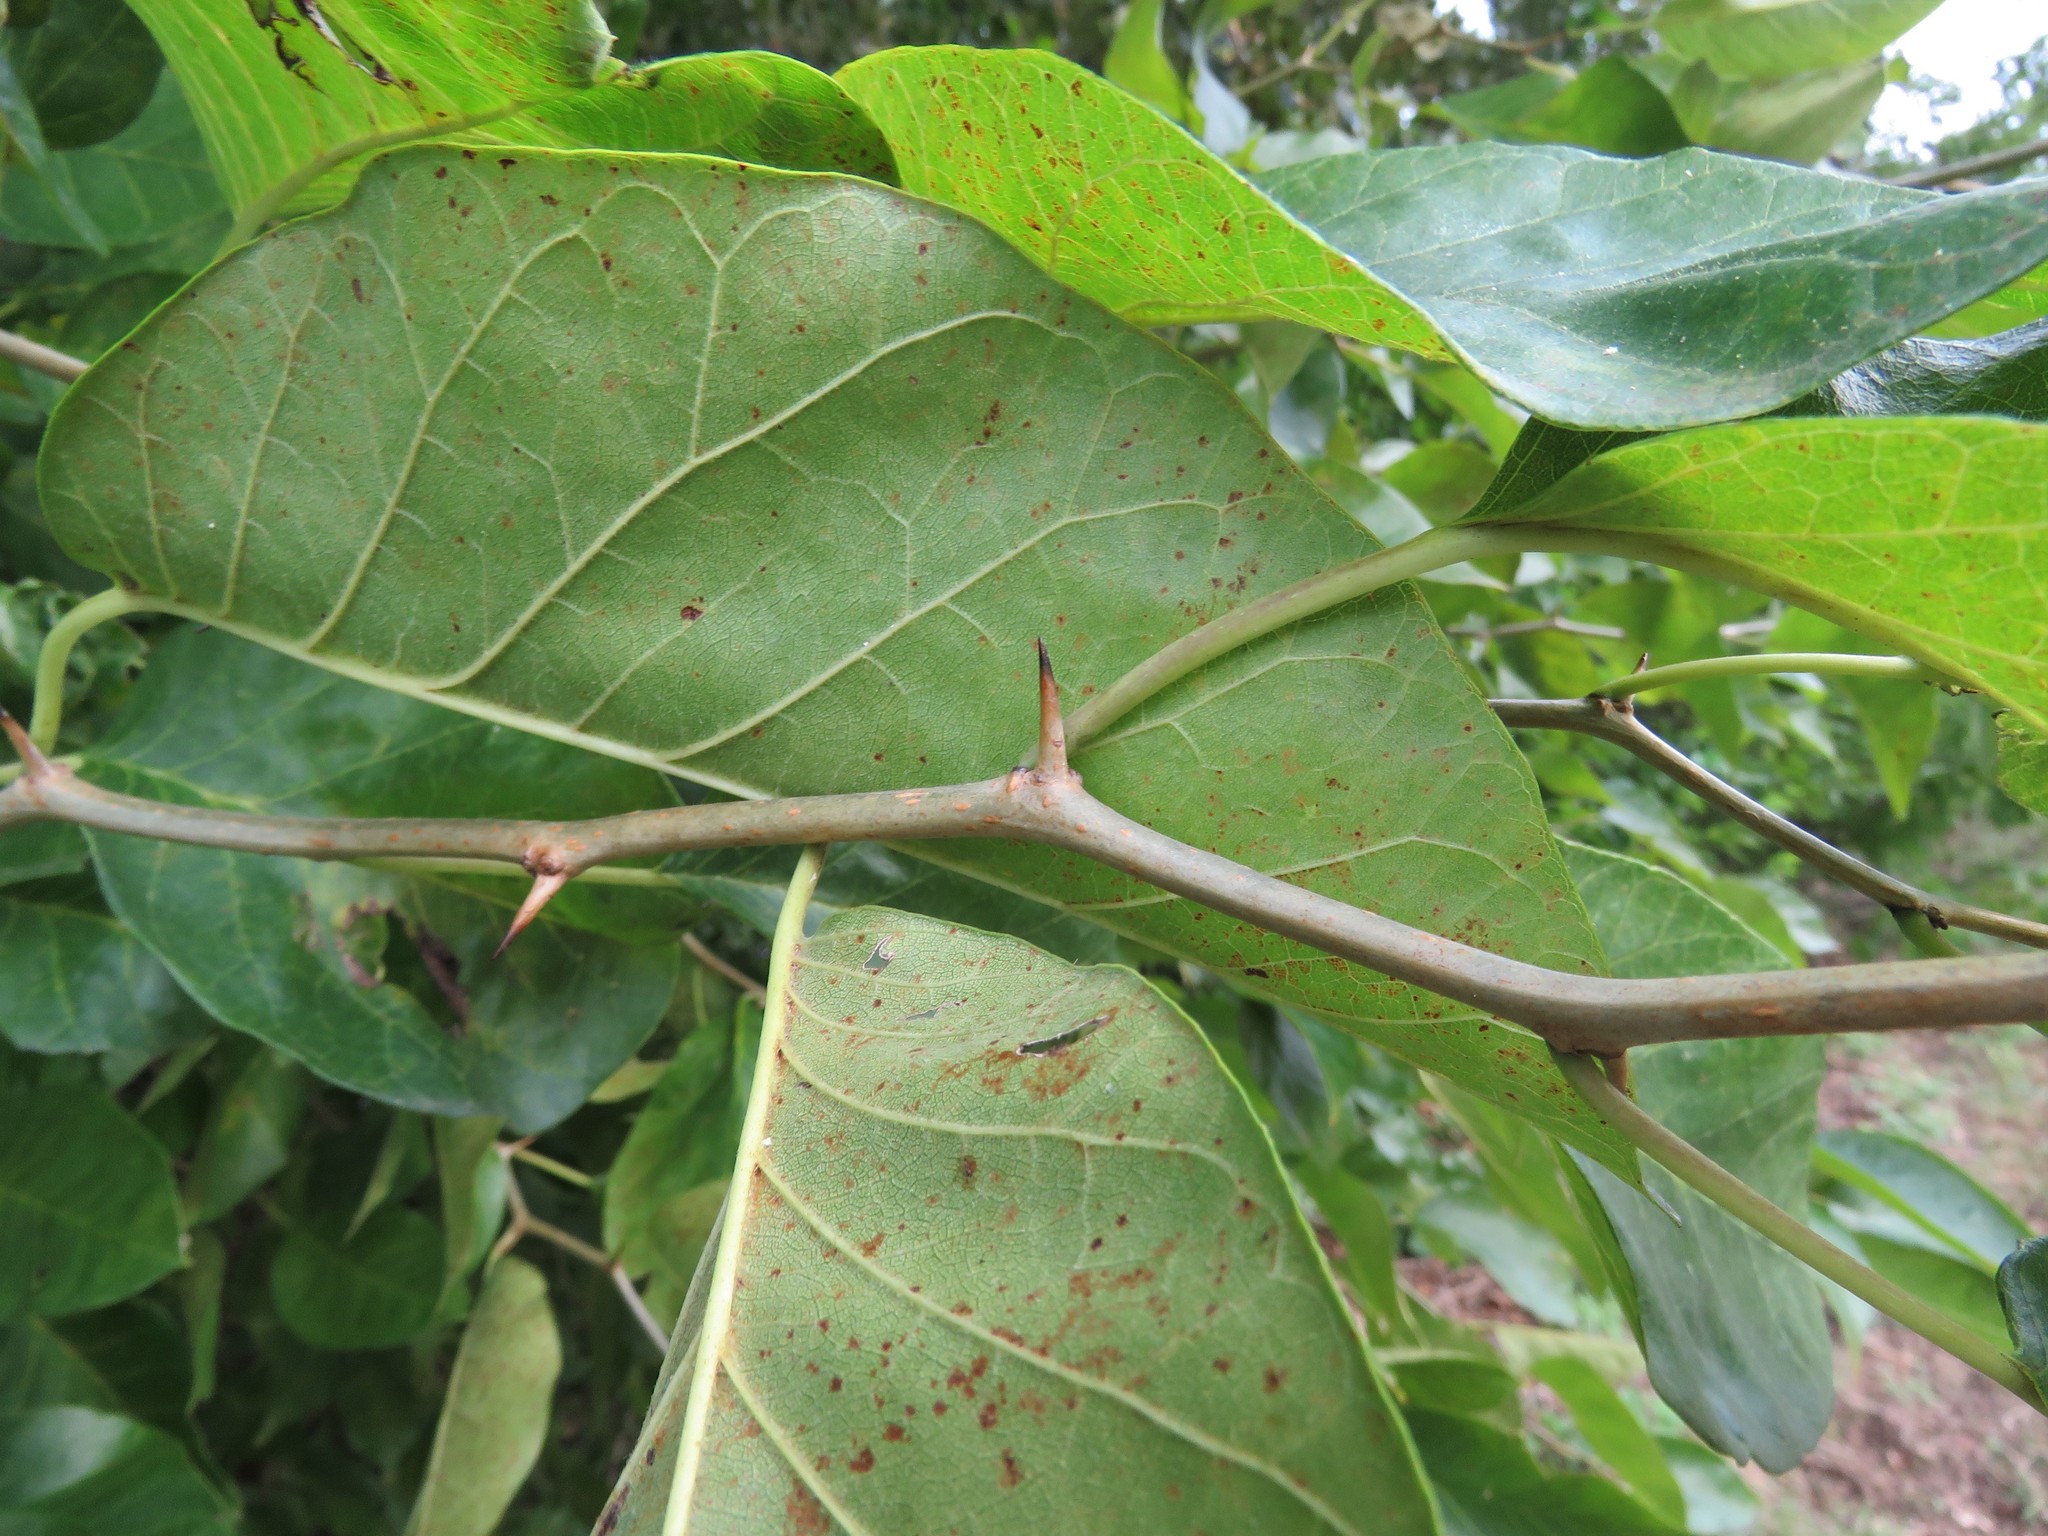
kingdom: Plantae
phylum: Tracheophyta
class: Magnoliopsida
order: Rosales
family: Moraceae
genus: Maclura
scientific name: Maclura pomifera
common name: Osage-orange
